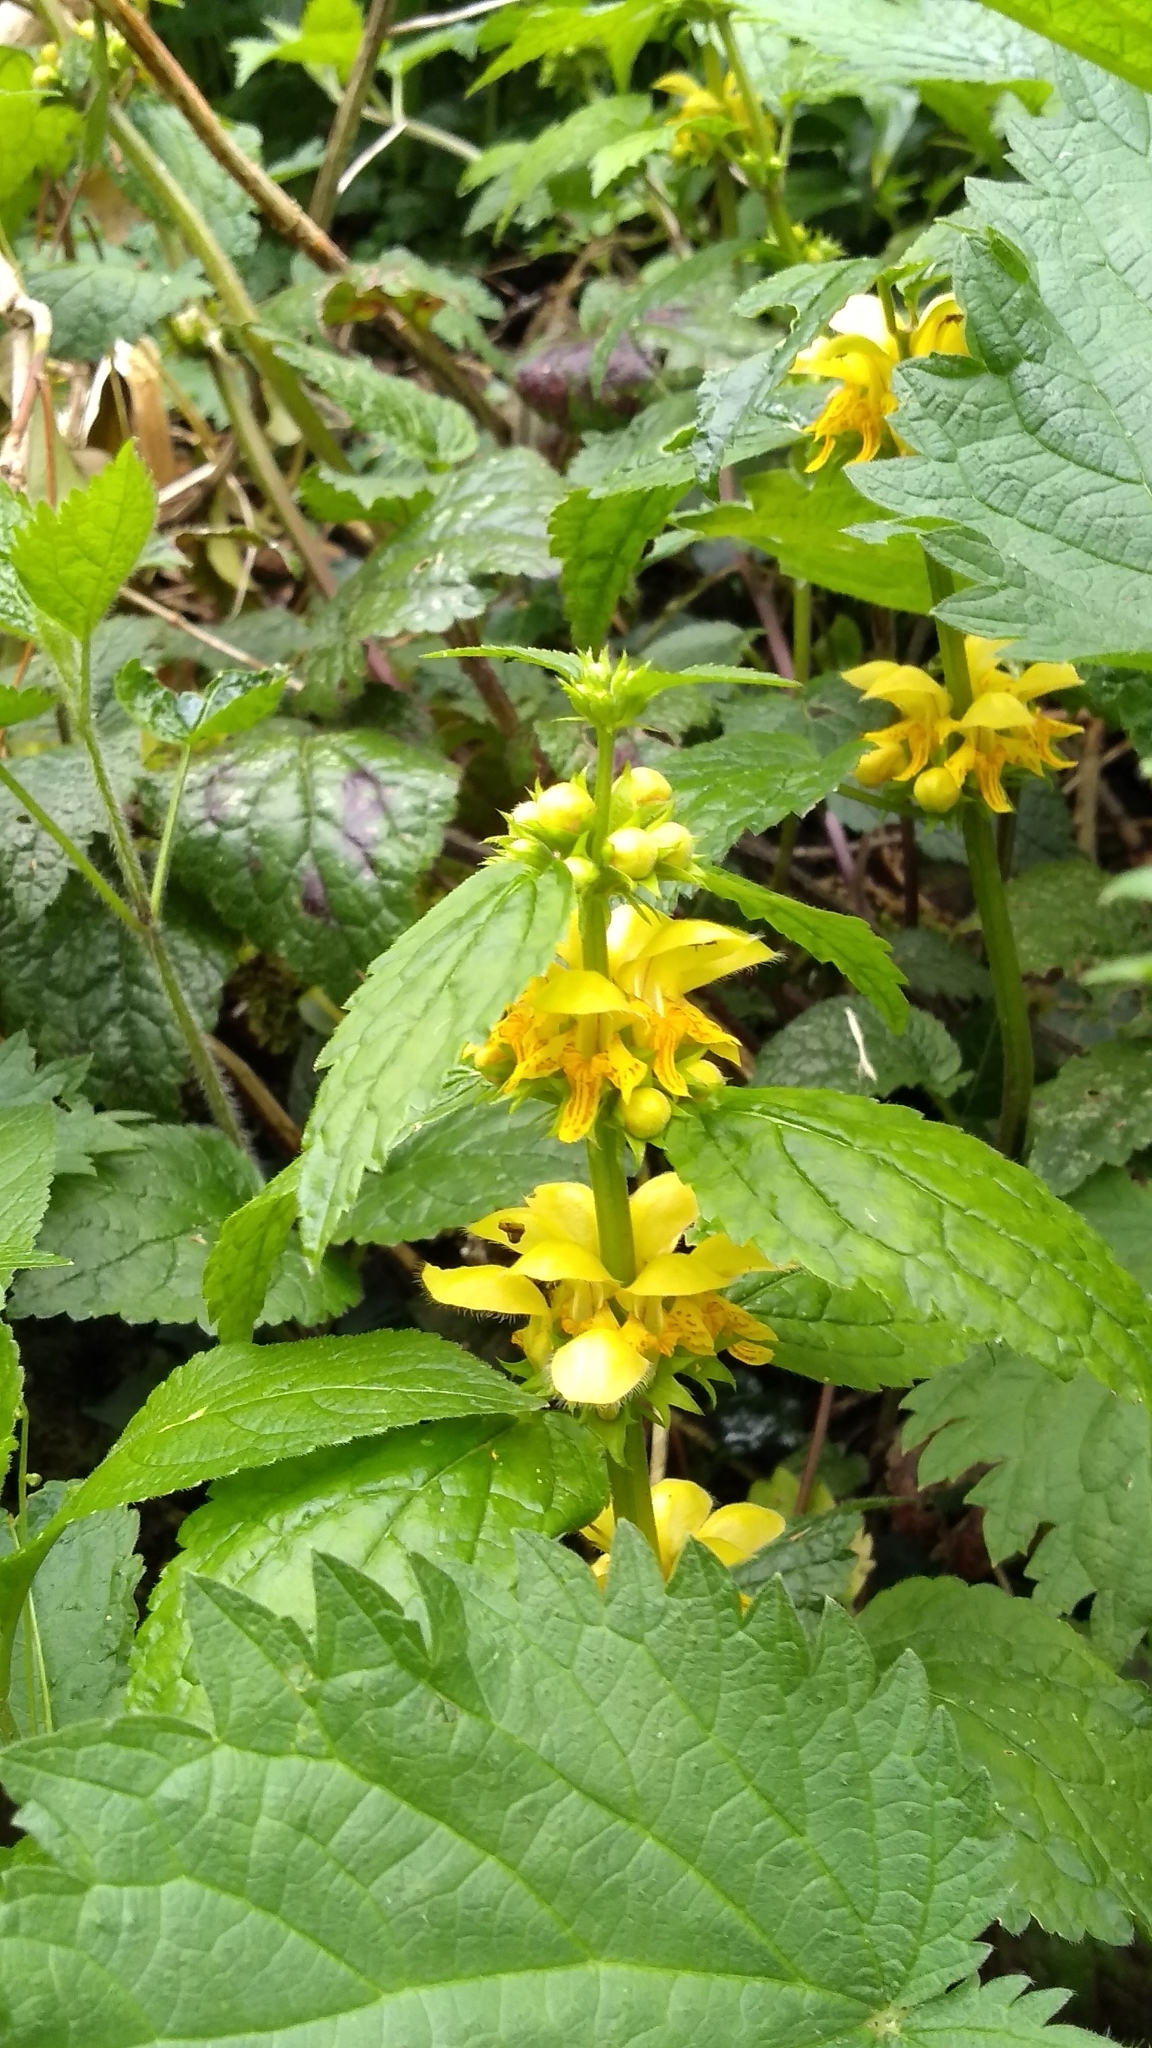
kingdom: Plantae
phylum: Tracheophyta
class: Magnoliopsida
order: Lamiales
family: Lamiaceae
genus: Lamium
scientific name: Lamium galeobdolon
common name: Yellow archangel
